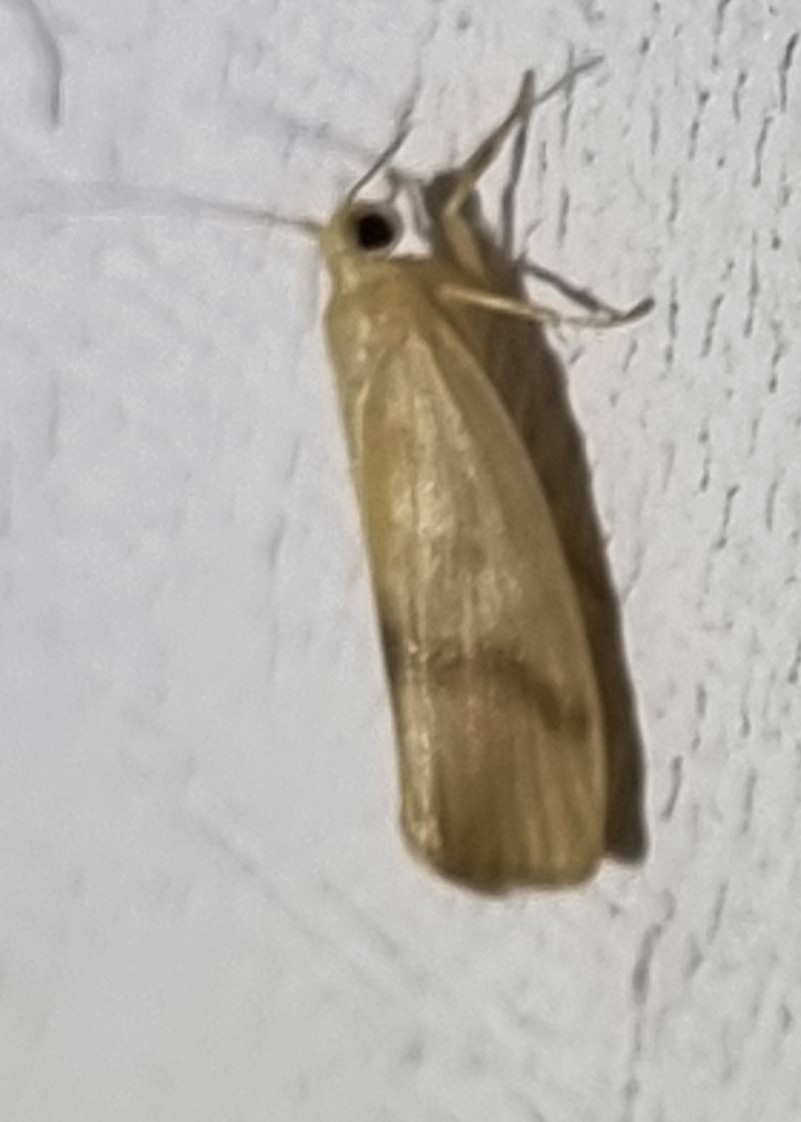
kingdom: Animalia
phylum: Arthropoda
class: Insecta
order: Lepidoptera
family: Erebidae
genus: Notata
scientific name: Notata modicus
